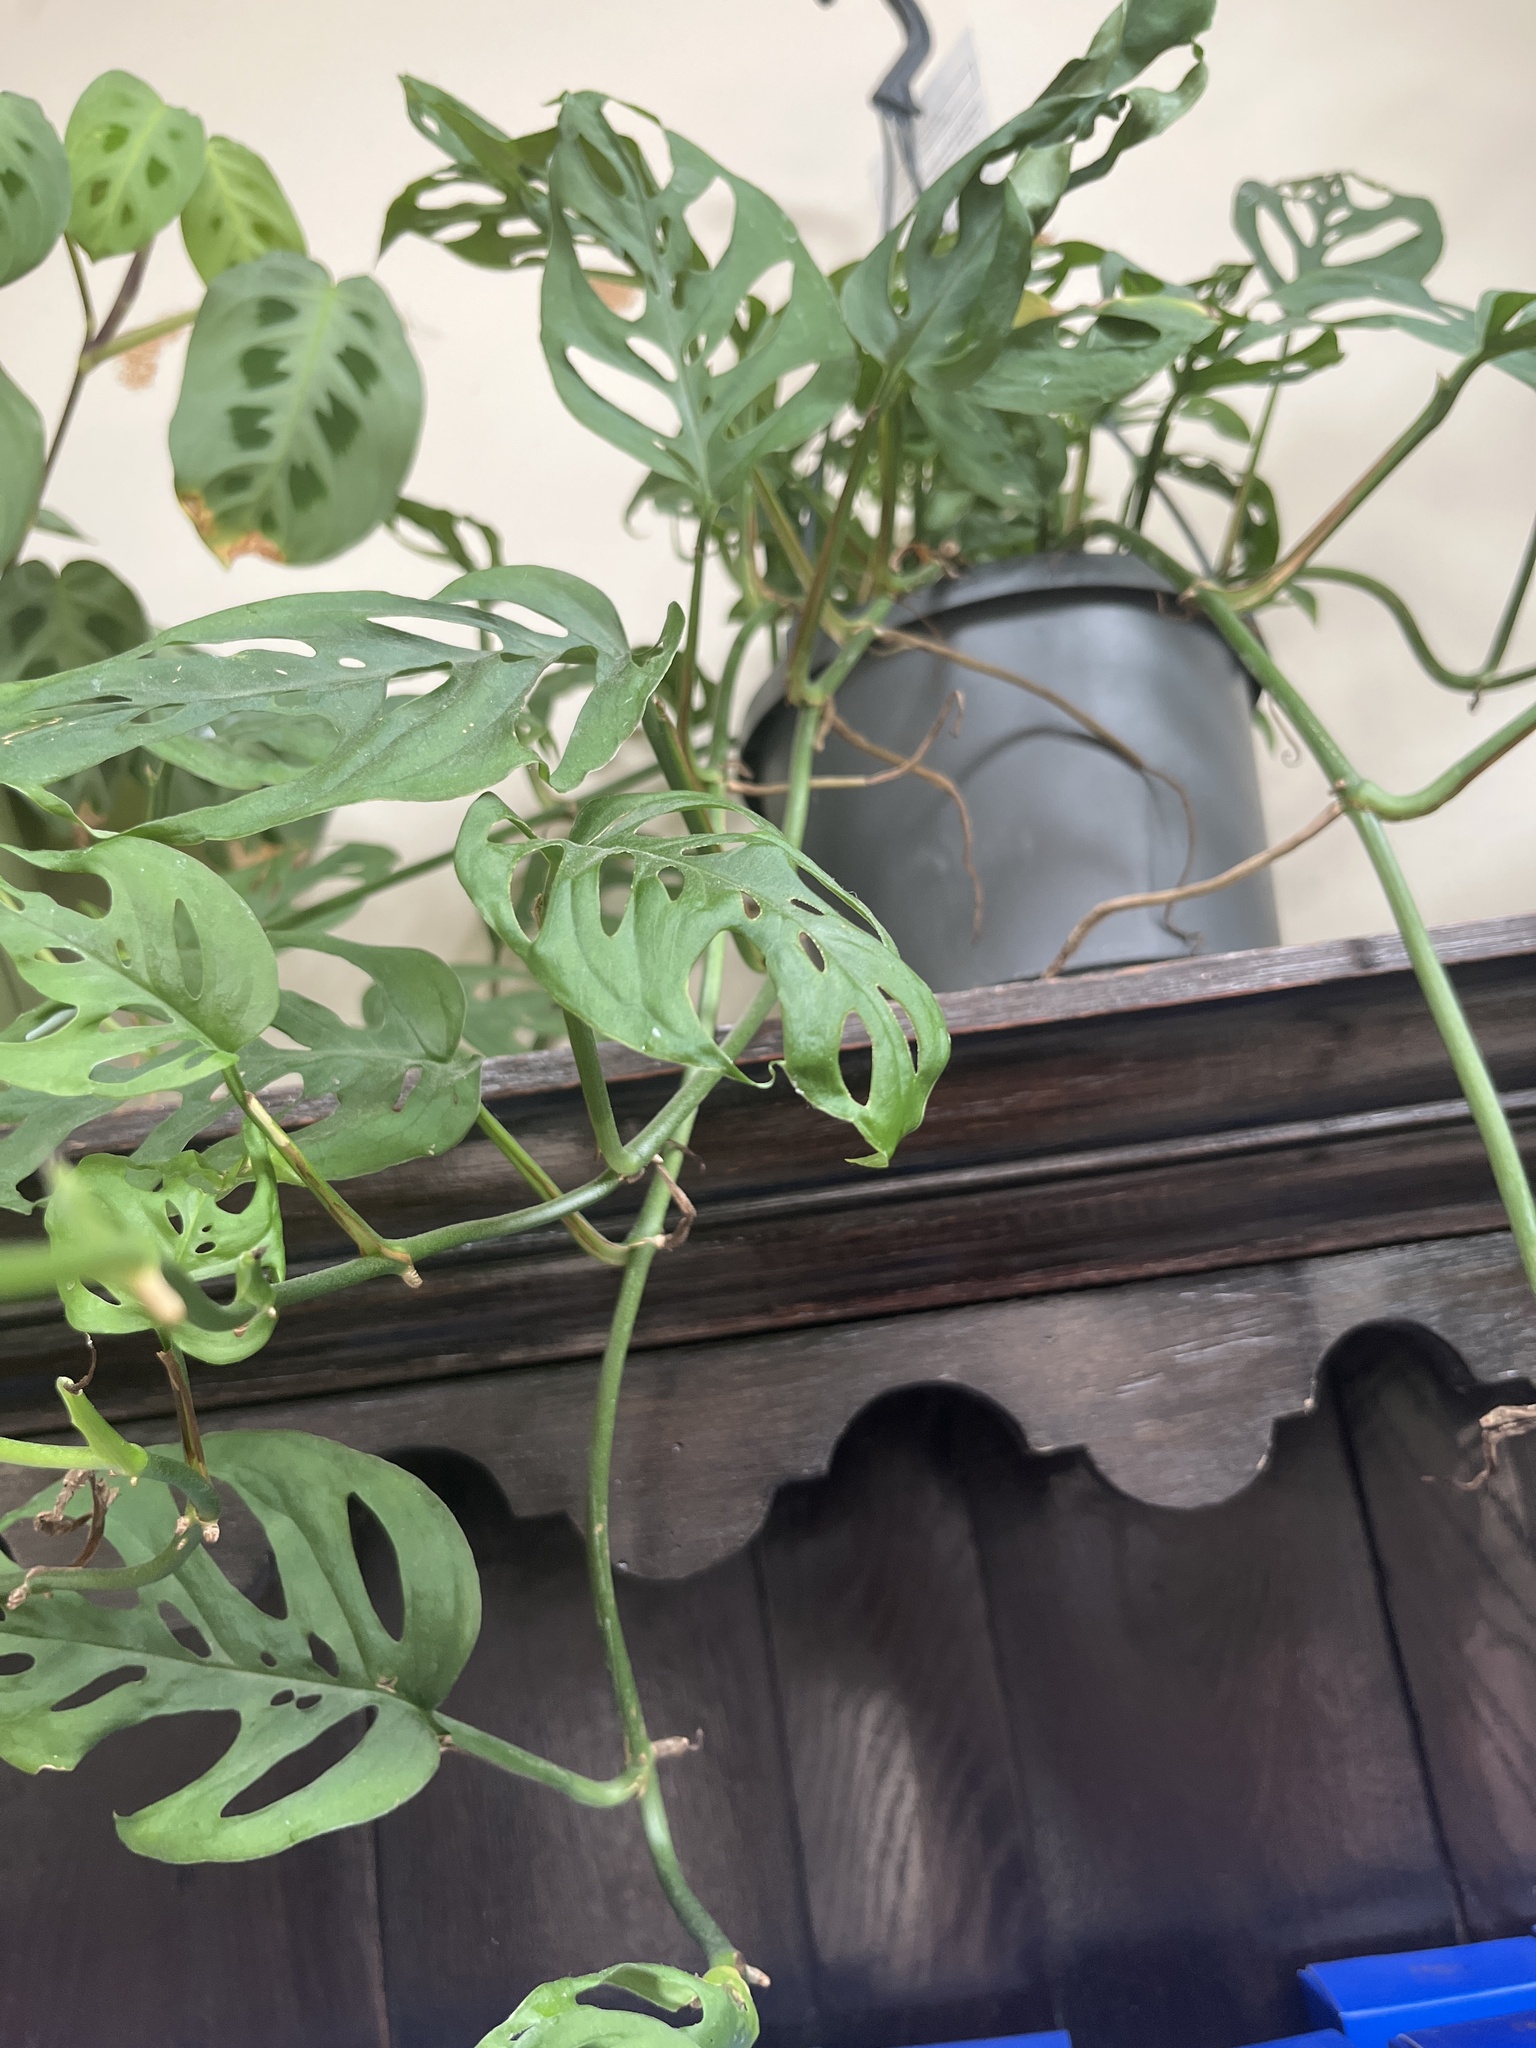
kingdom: Plantae
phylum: Tracheophyta
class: Liliopsida
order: Alismatales
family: Araceae
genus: Monstera
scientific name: Monstera adansonii
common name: Tarovine
